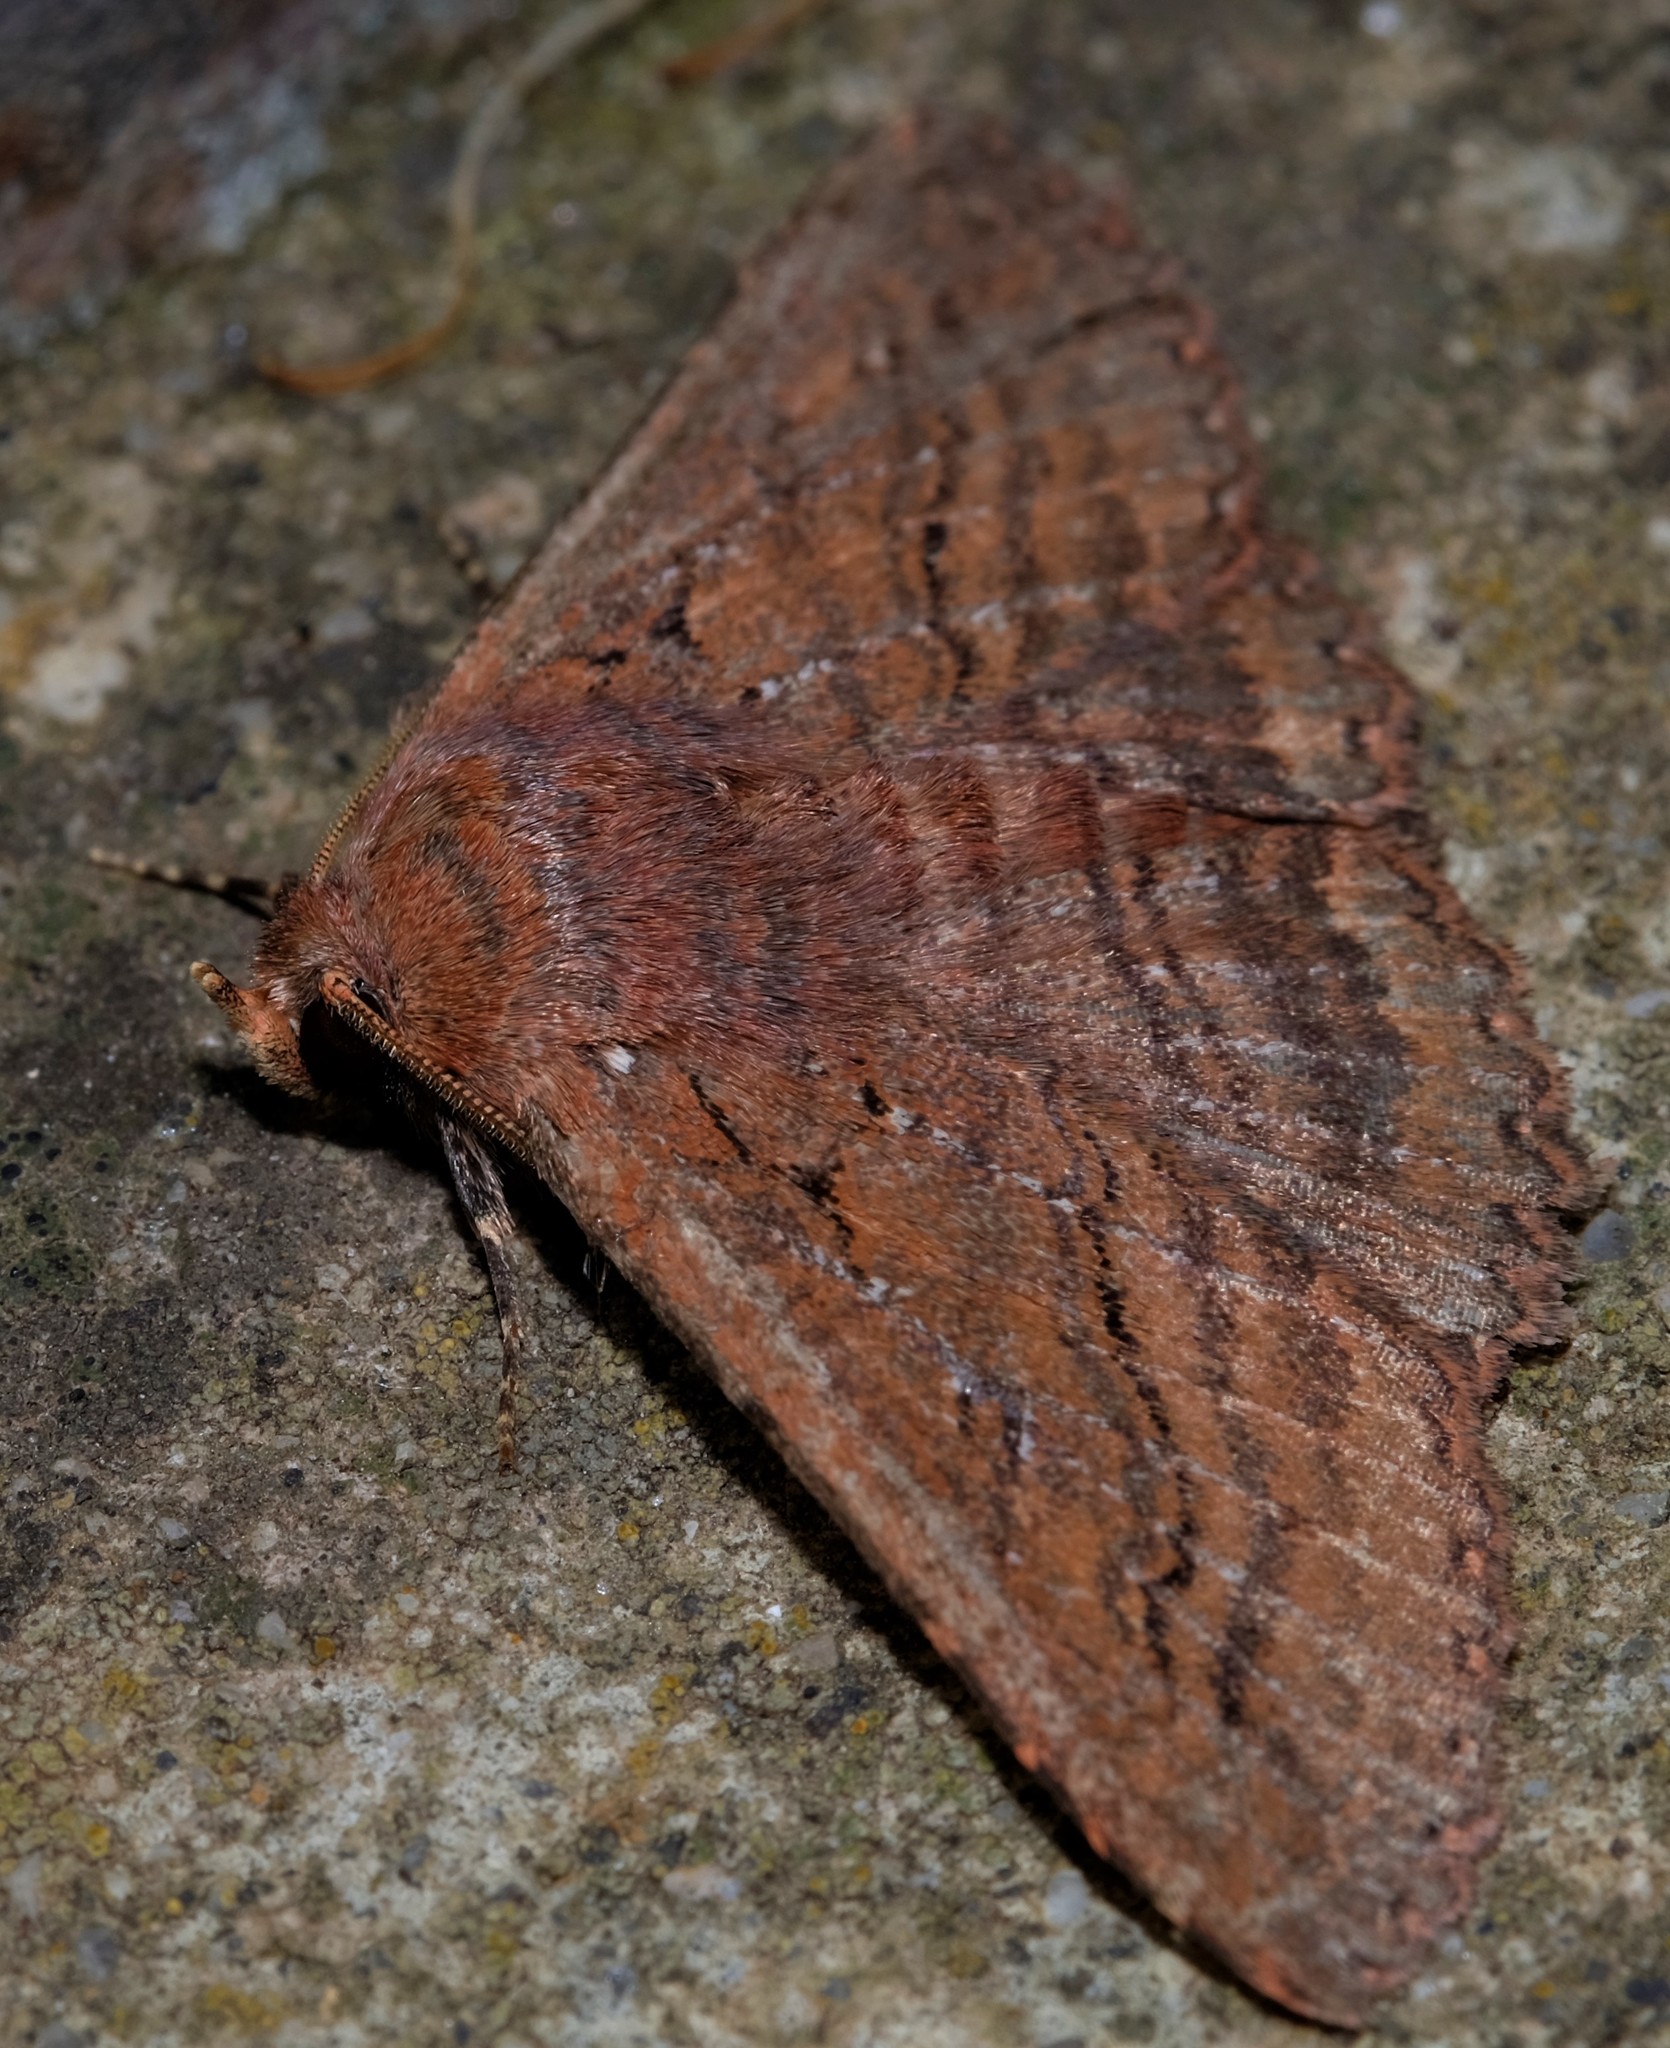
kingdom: Animalia
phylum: Arthropoda
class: Insecta
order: Lepidoptera
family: Erebidae
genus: Praxis
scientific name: Praxis porphyretica
